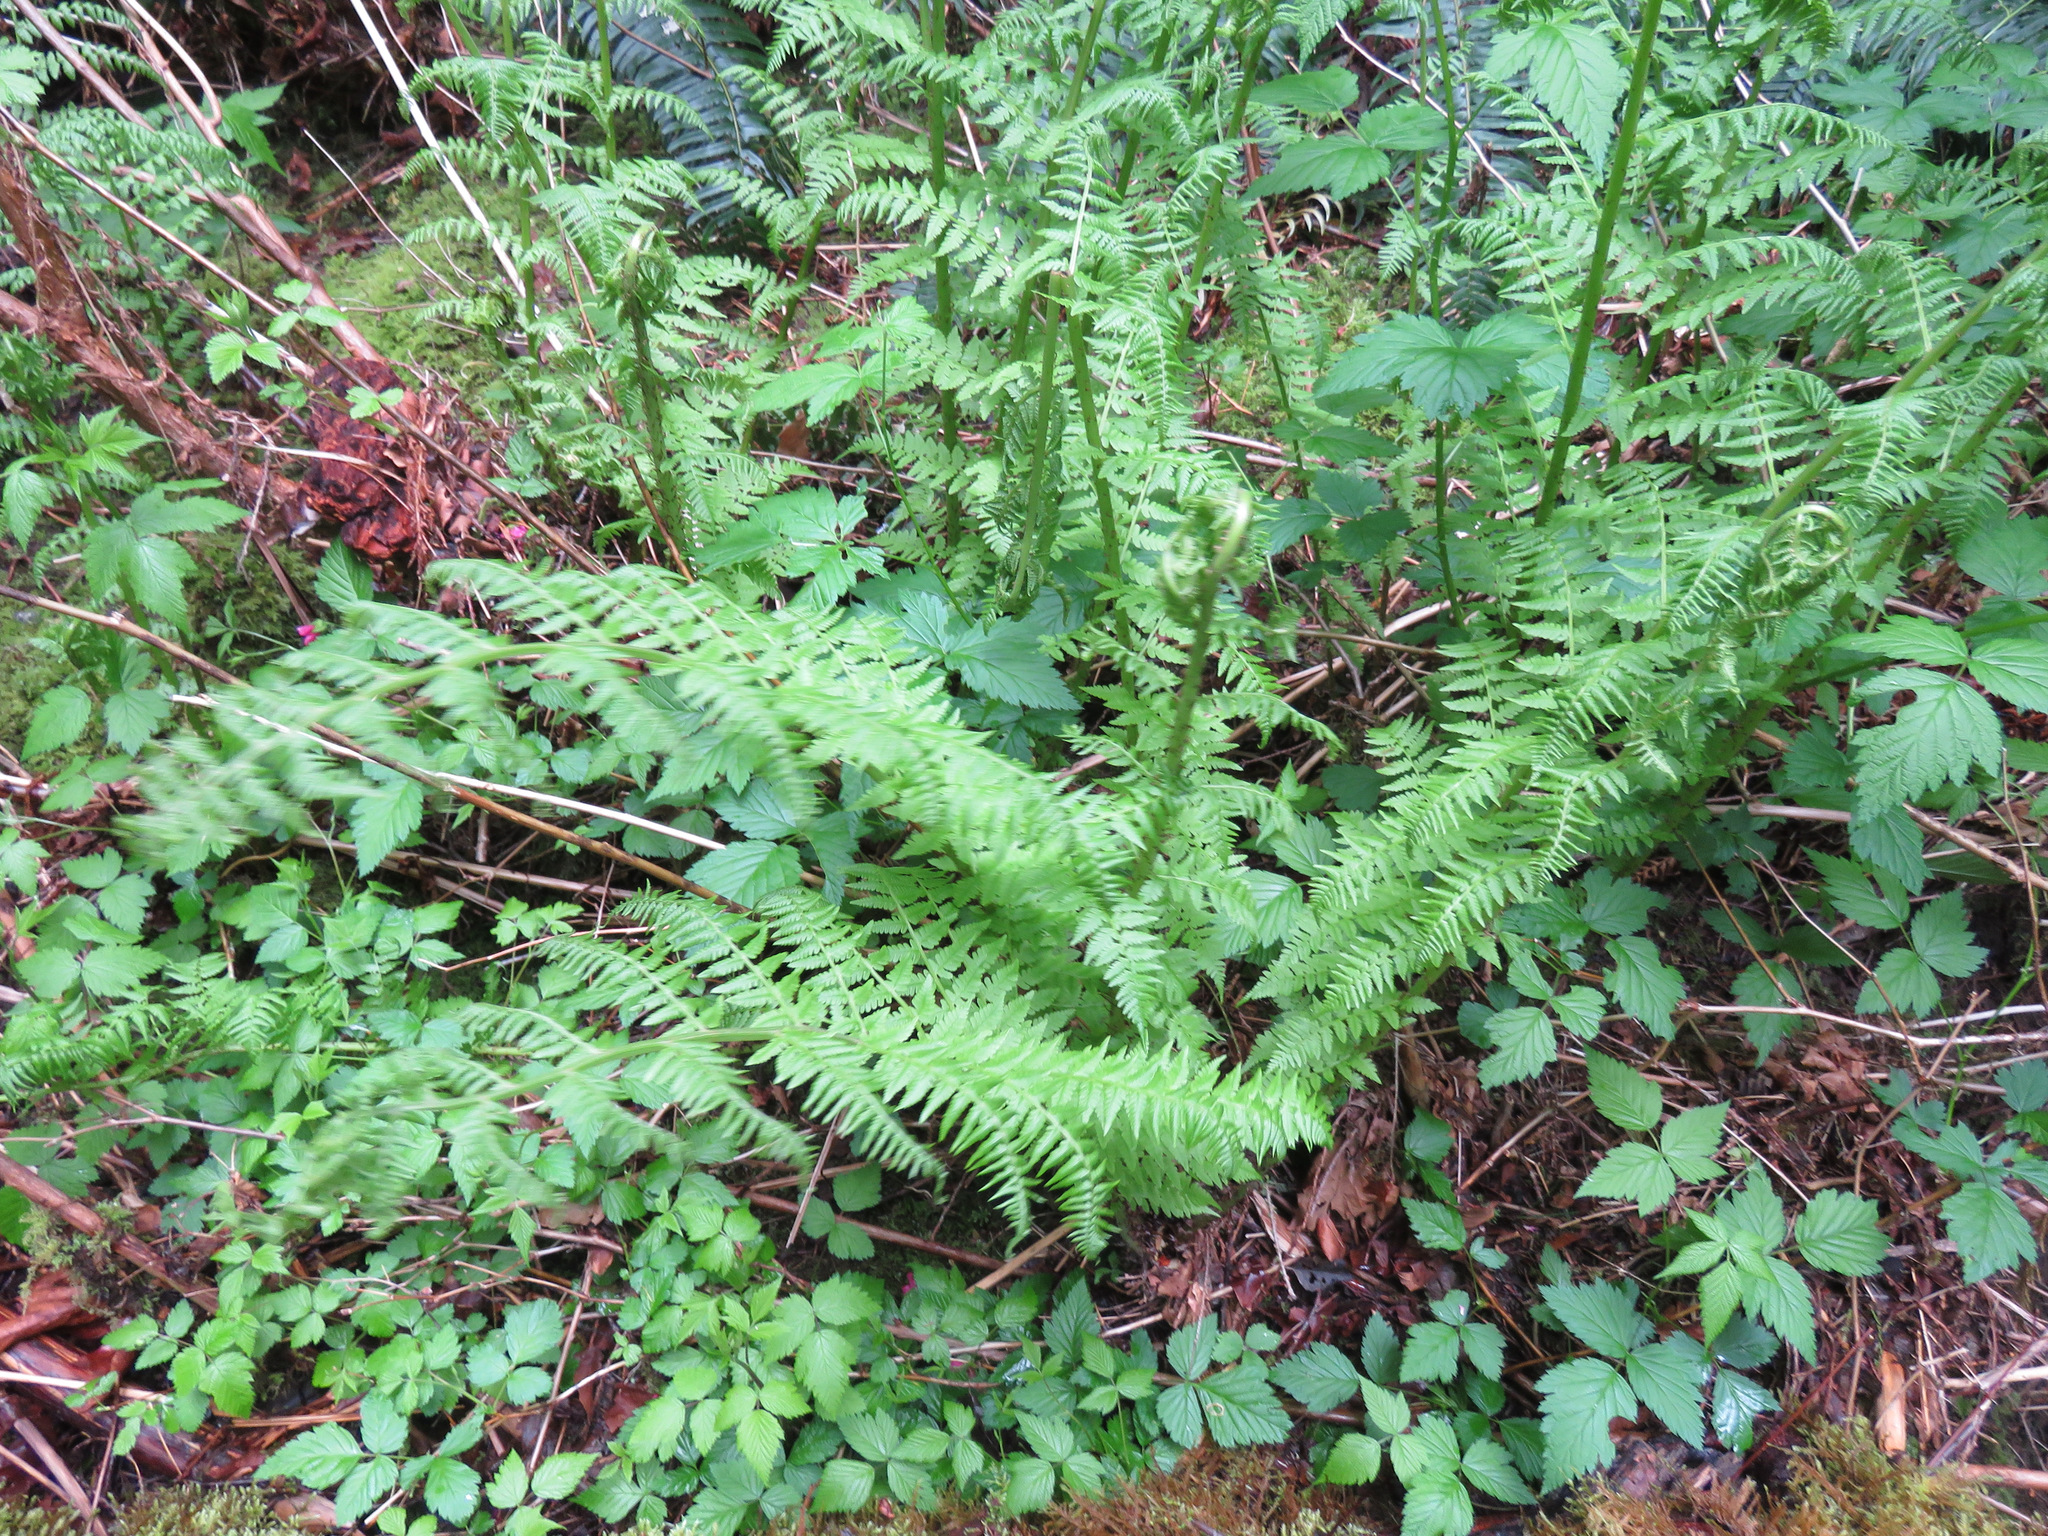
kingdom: Plantae
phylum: Tracheophyta
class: Polypodiopsida
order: Polypodiales
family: Athyriaceae
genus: Athyrium
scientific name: Athyrium filix-femina
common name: Lady fern
